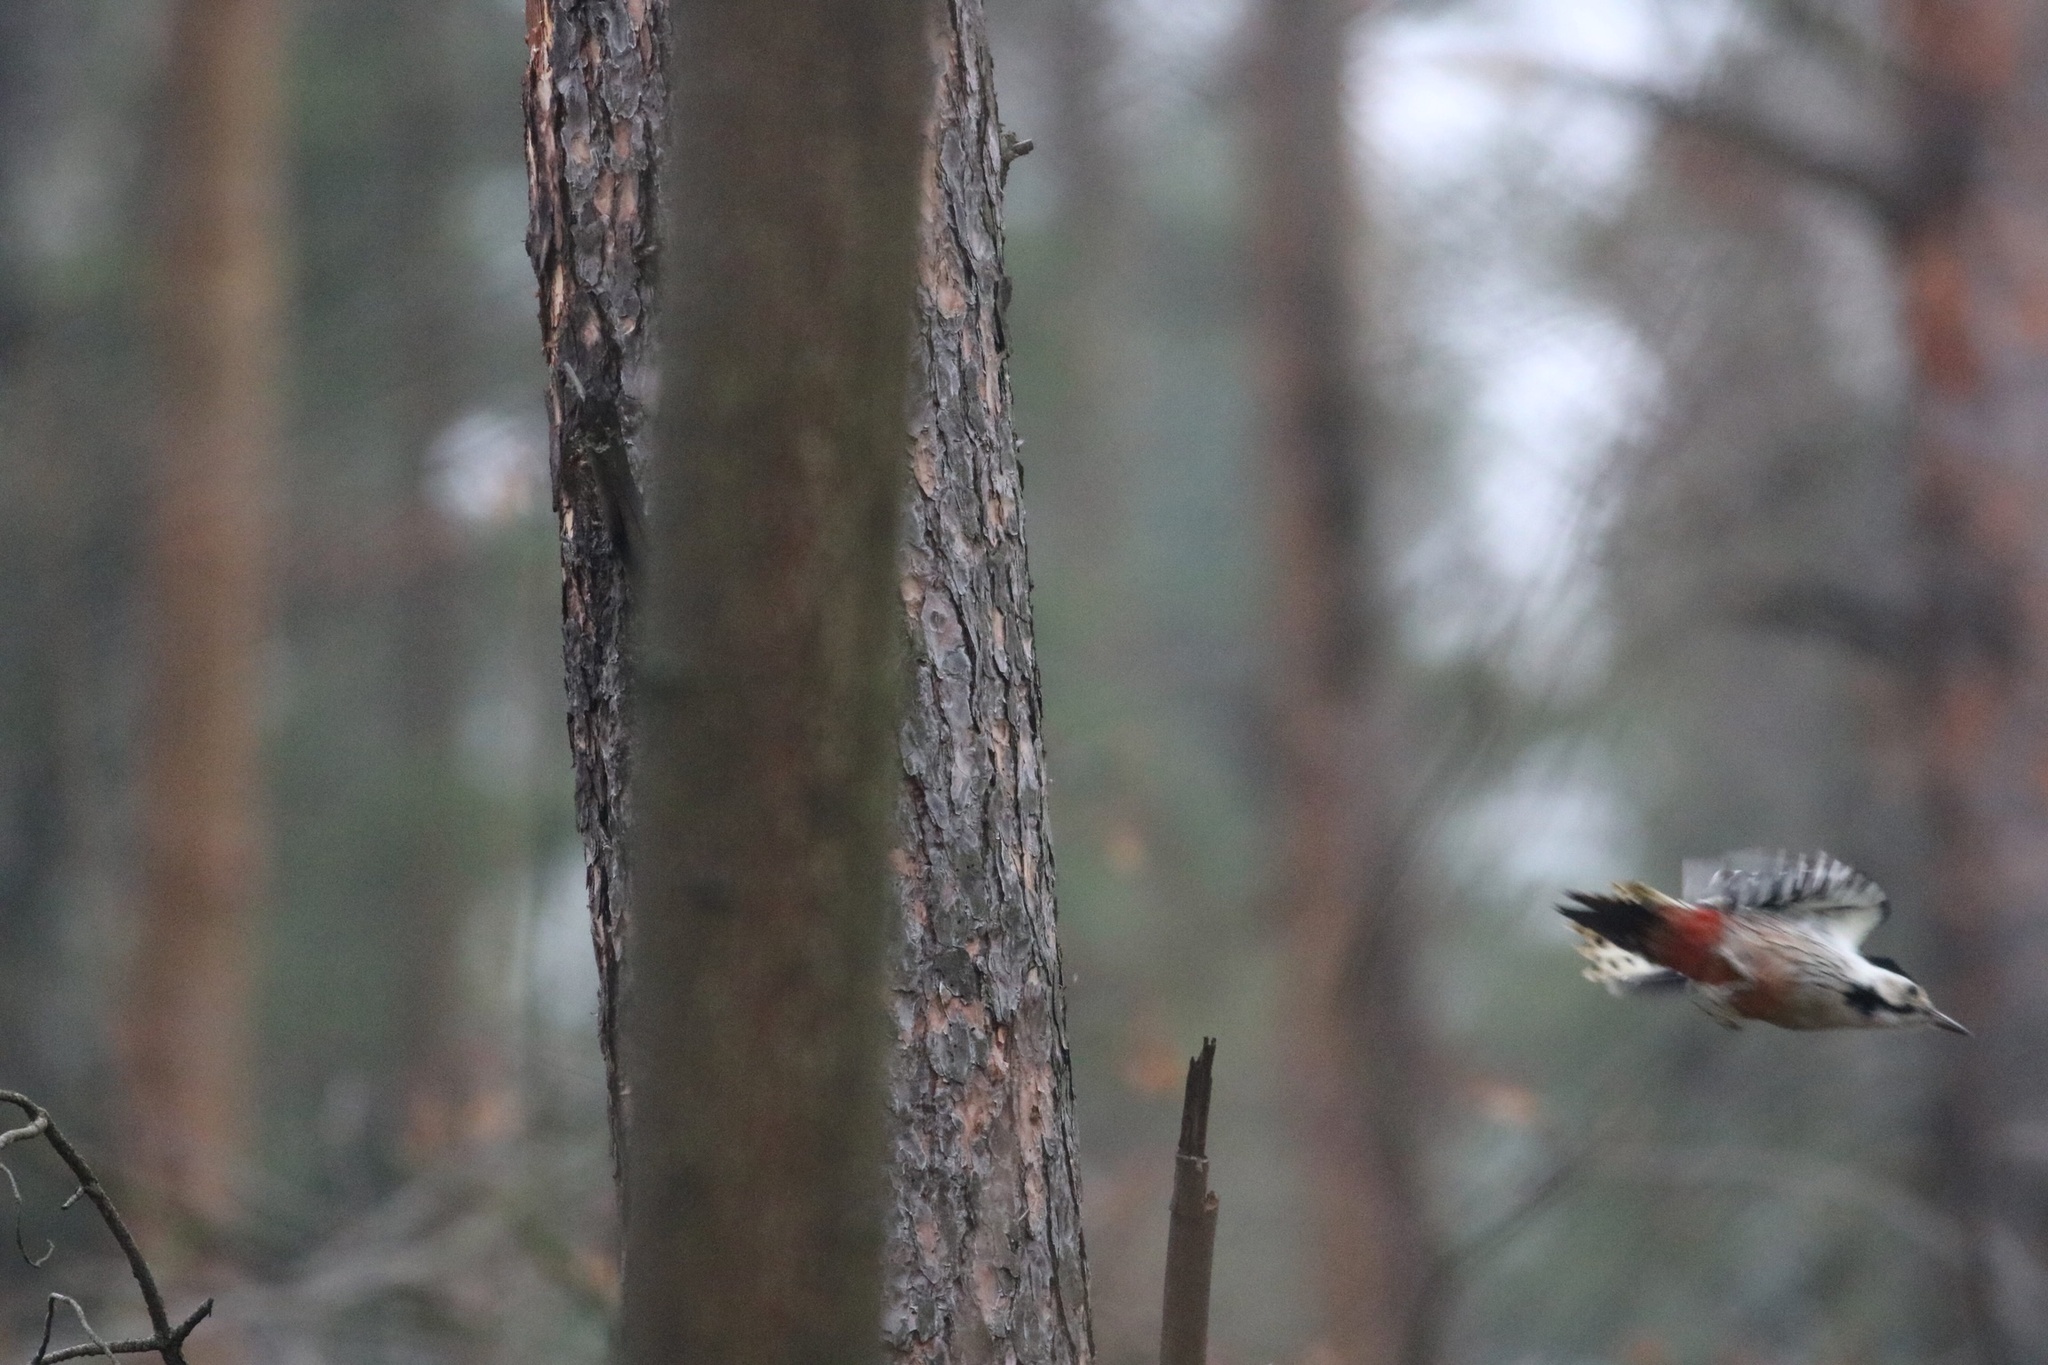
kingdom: Animalia
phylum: Chordata
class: Aves
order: Piciformes
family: Picidae
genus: Dendrocopos
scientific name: Dendrocopos leucotos
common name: White-backed woodpecker
